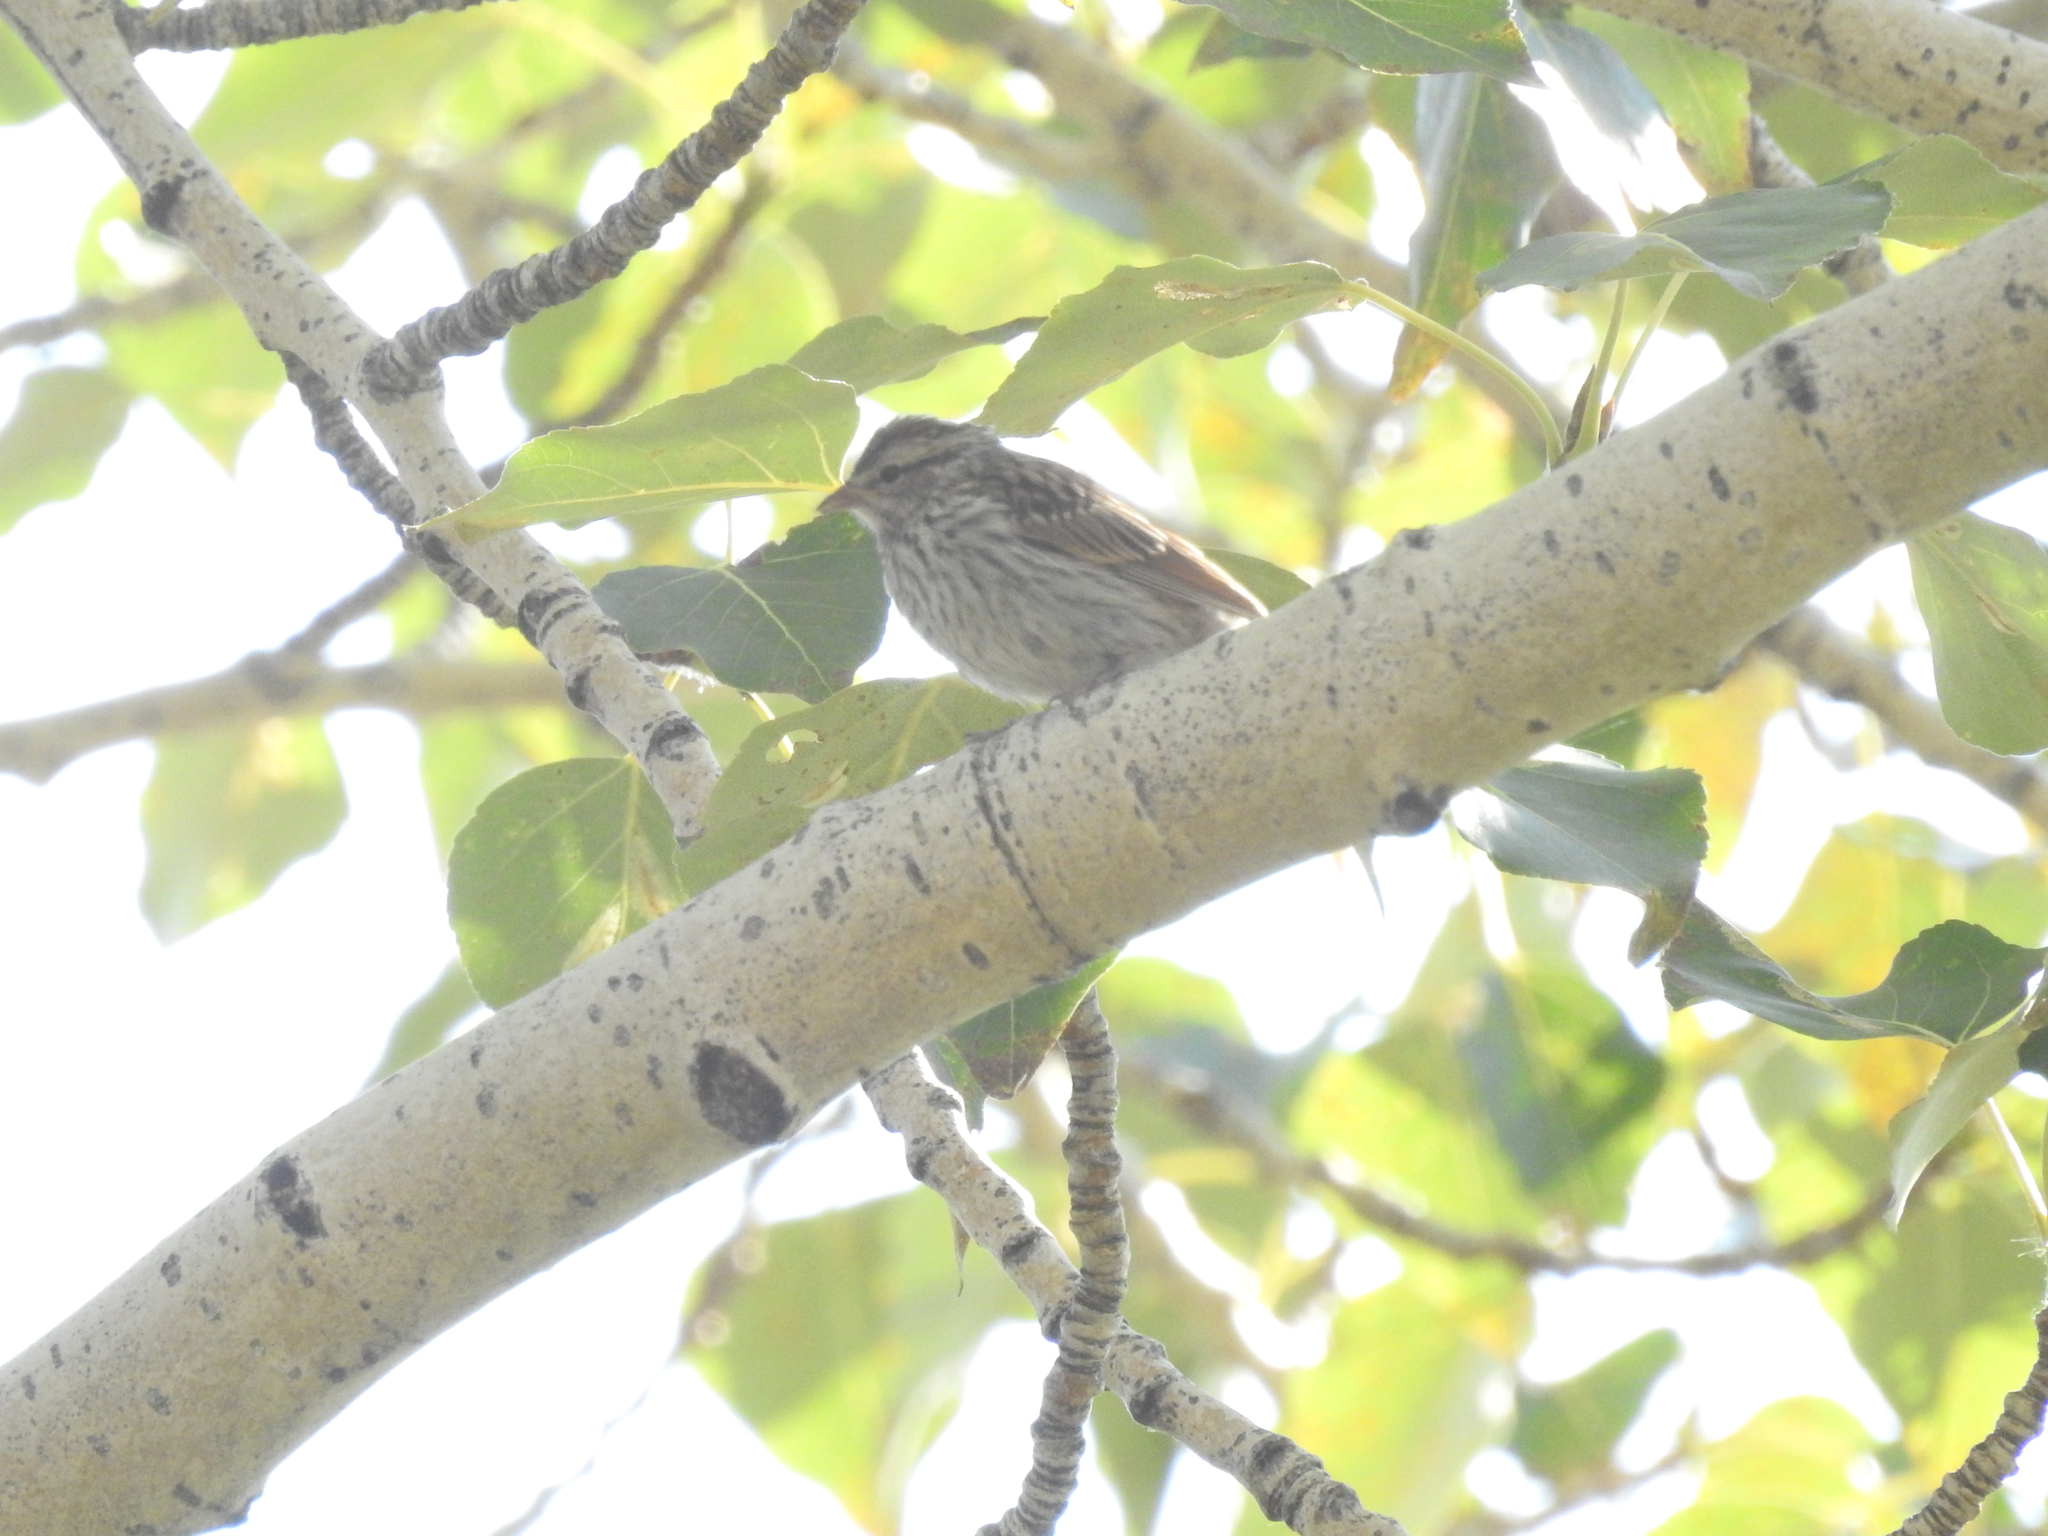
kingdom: Animalia
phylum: Chordata
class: Aves
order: Passeriformes
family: Passerellidae
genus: Spizella
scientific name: Spizella passerina
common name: Chipping sparrow
